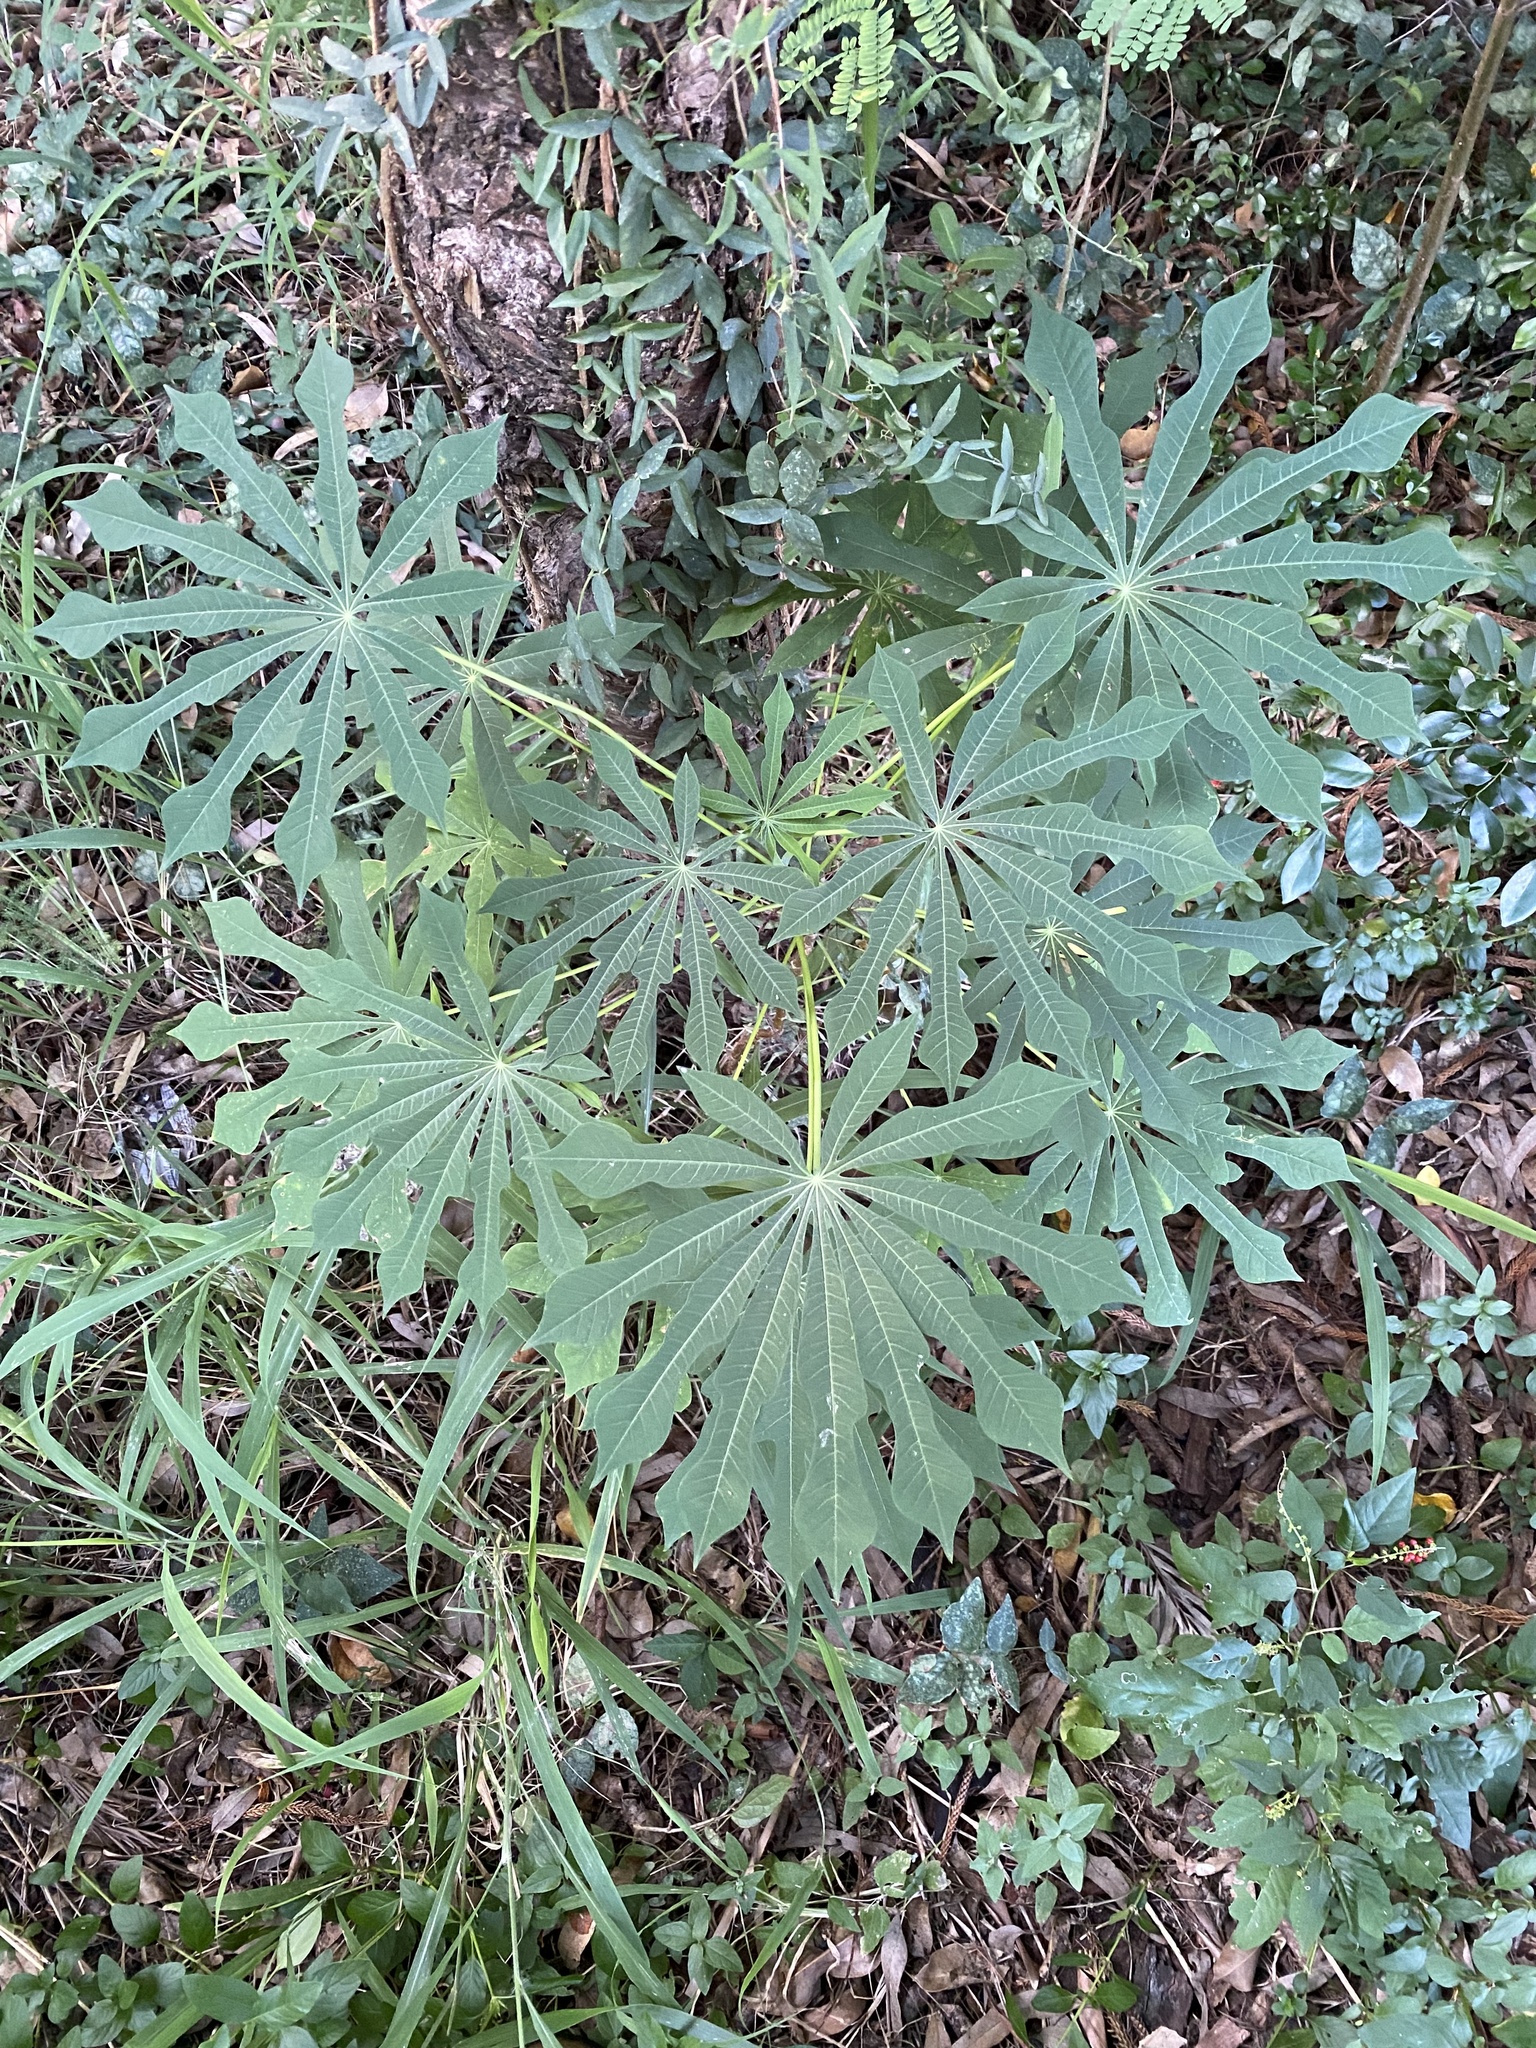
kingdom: Plantae
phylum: Tracheophyta
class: Magnoliopsida
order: Malpighiales
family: Euphorbiaceae
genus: Manihot
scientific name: Manihot grahamii
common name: Graham's manihot
